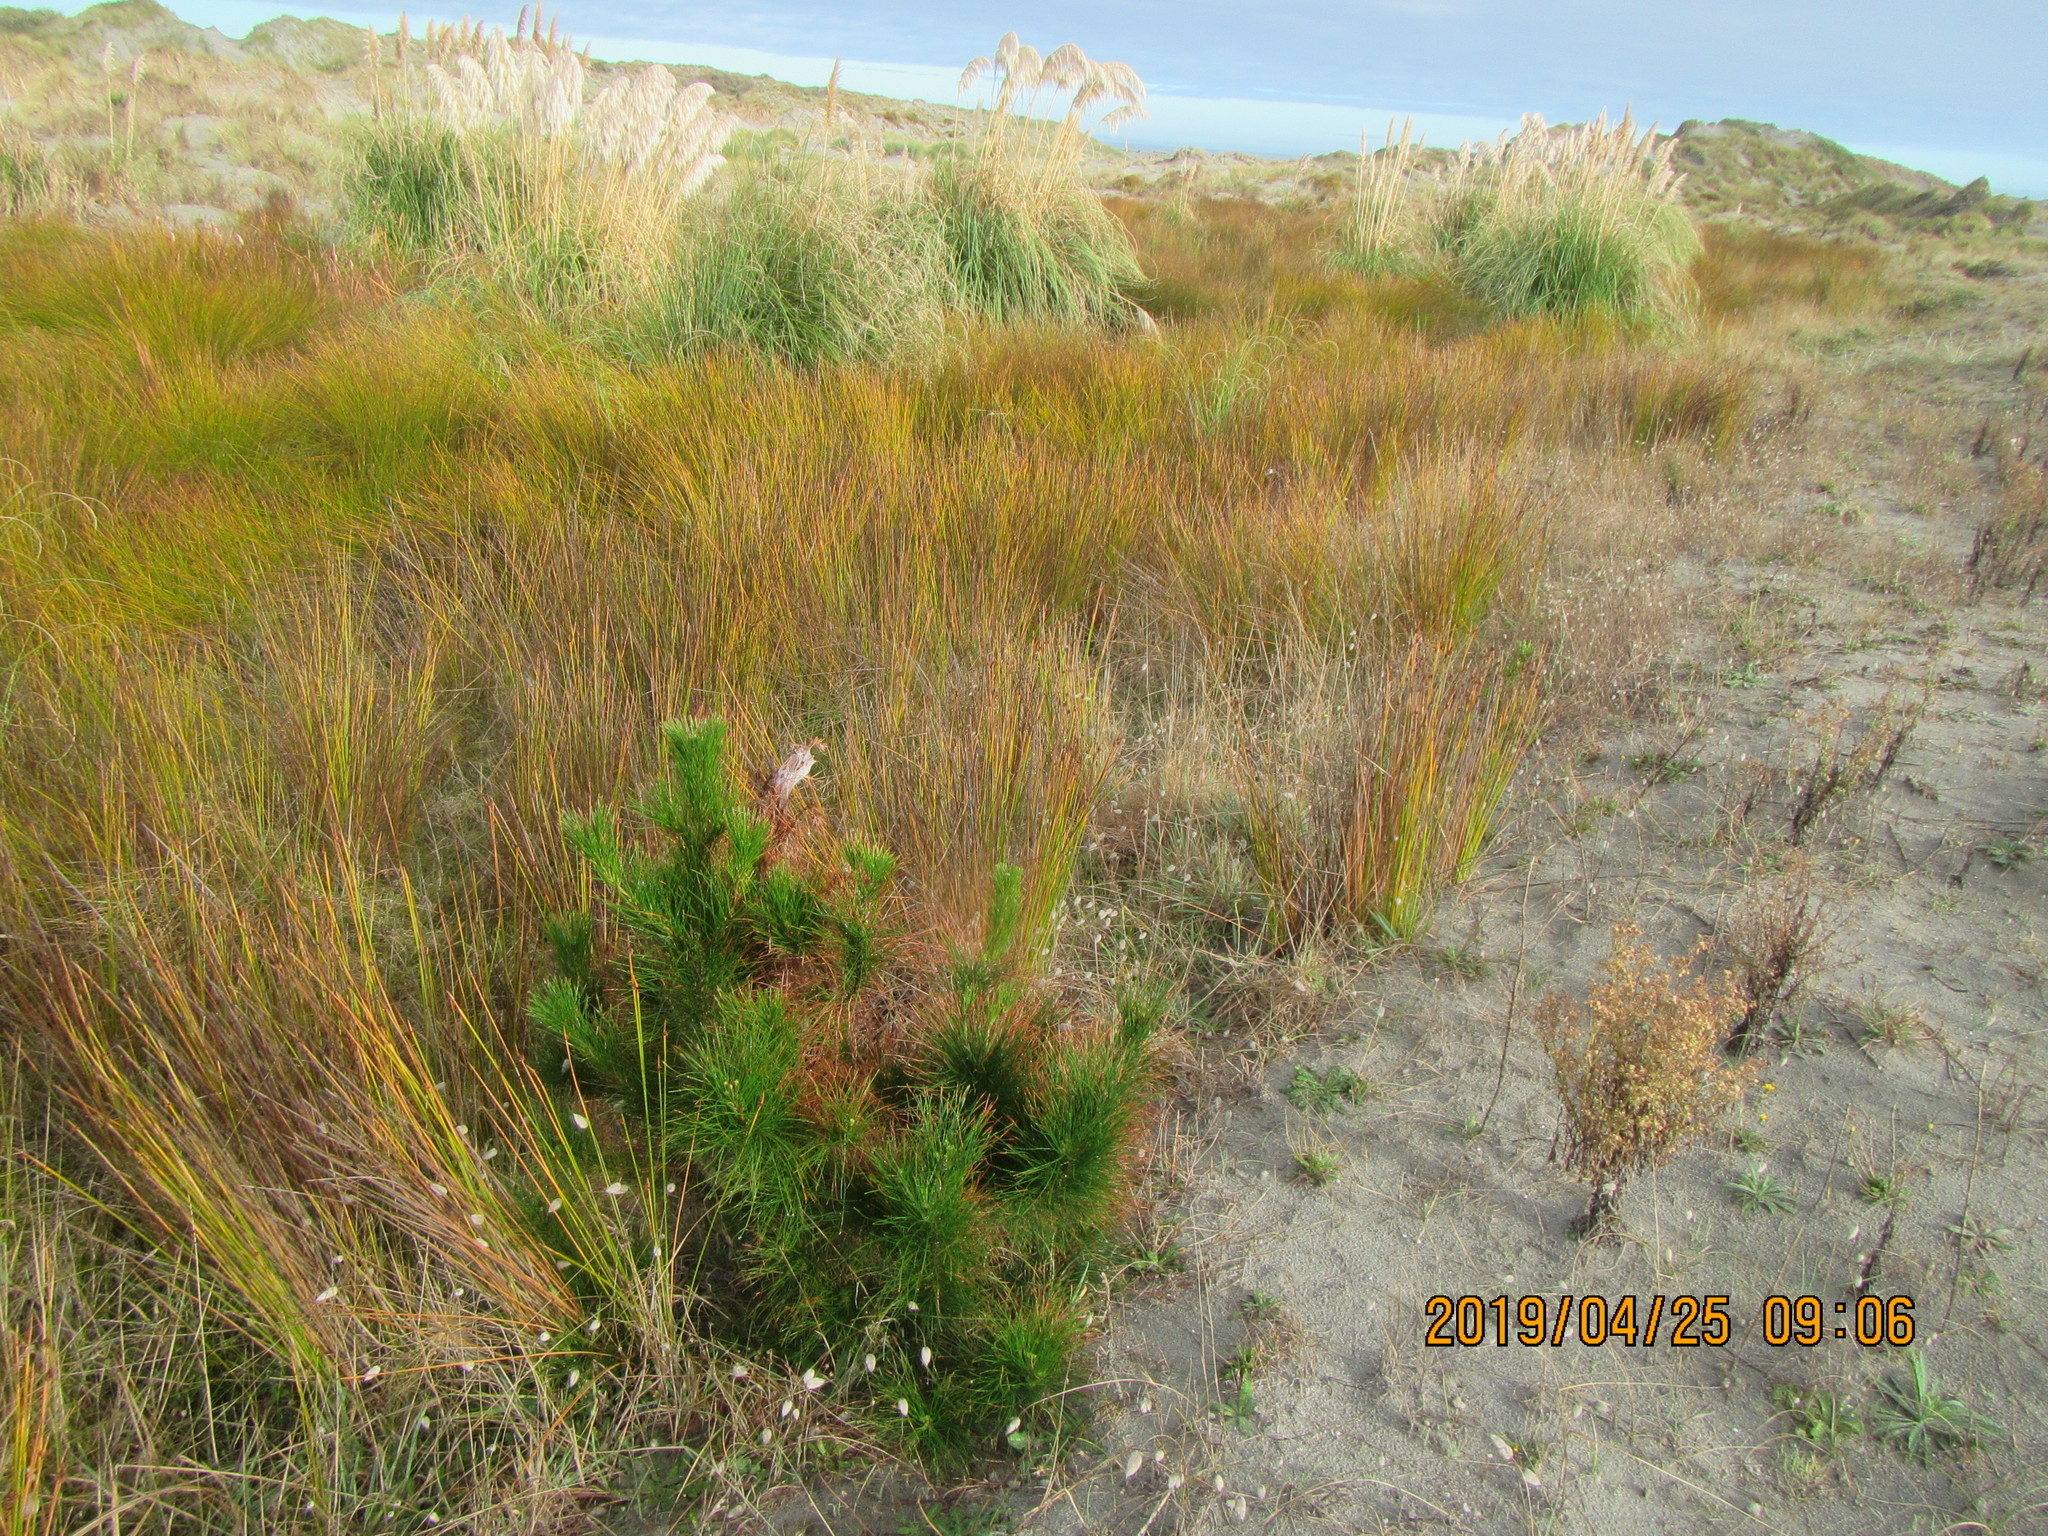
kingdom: Plantae
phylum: Tracheophyta
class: Pinopsida
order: Pinales
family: Pinaceae
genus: Pinus
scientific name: Pinus radiata
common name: Monterey pine
